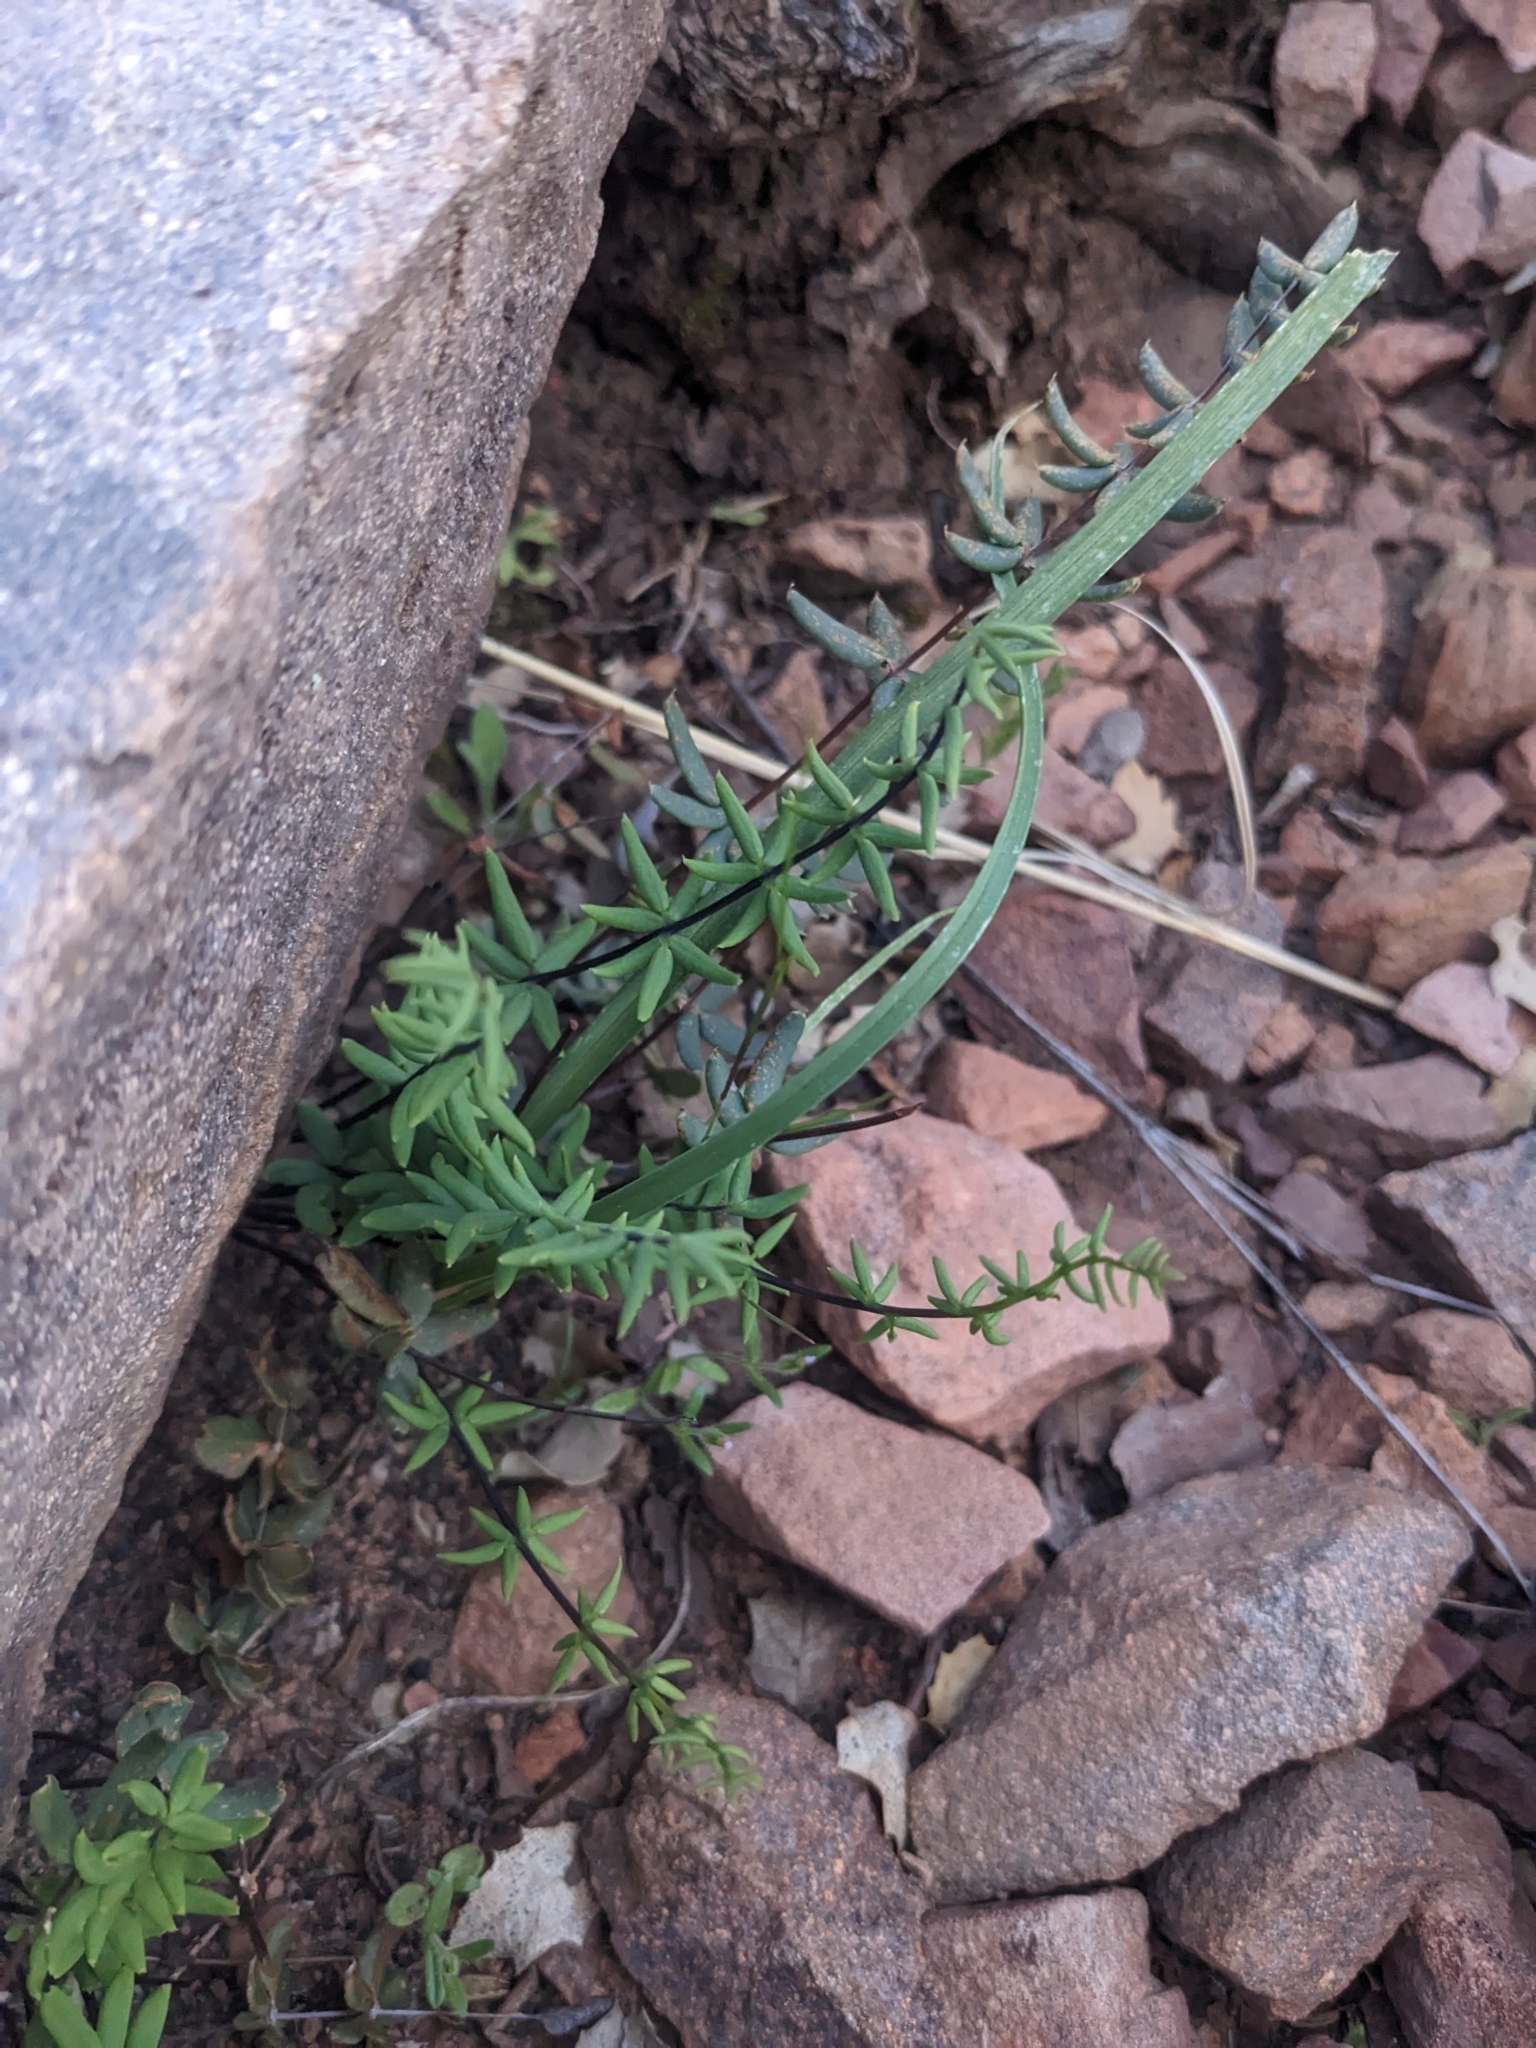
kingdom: Plantae
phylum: Tracheophyta
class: Polypodiopsida
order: Polypodiales
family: Pteridaceae
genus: Pellaea
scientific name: Pellaea wrightiana
